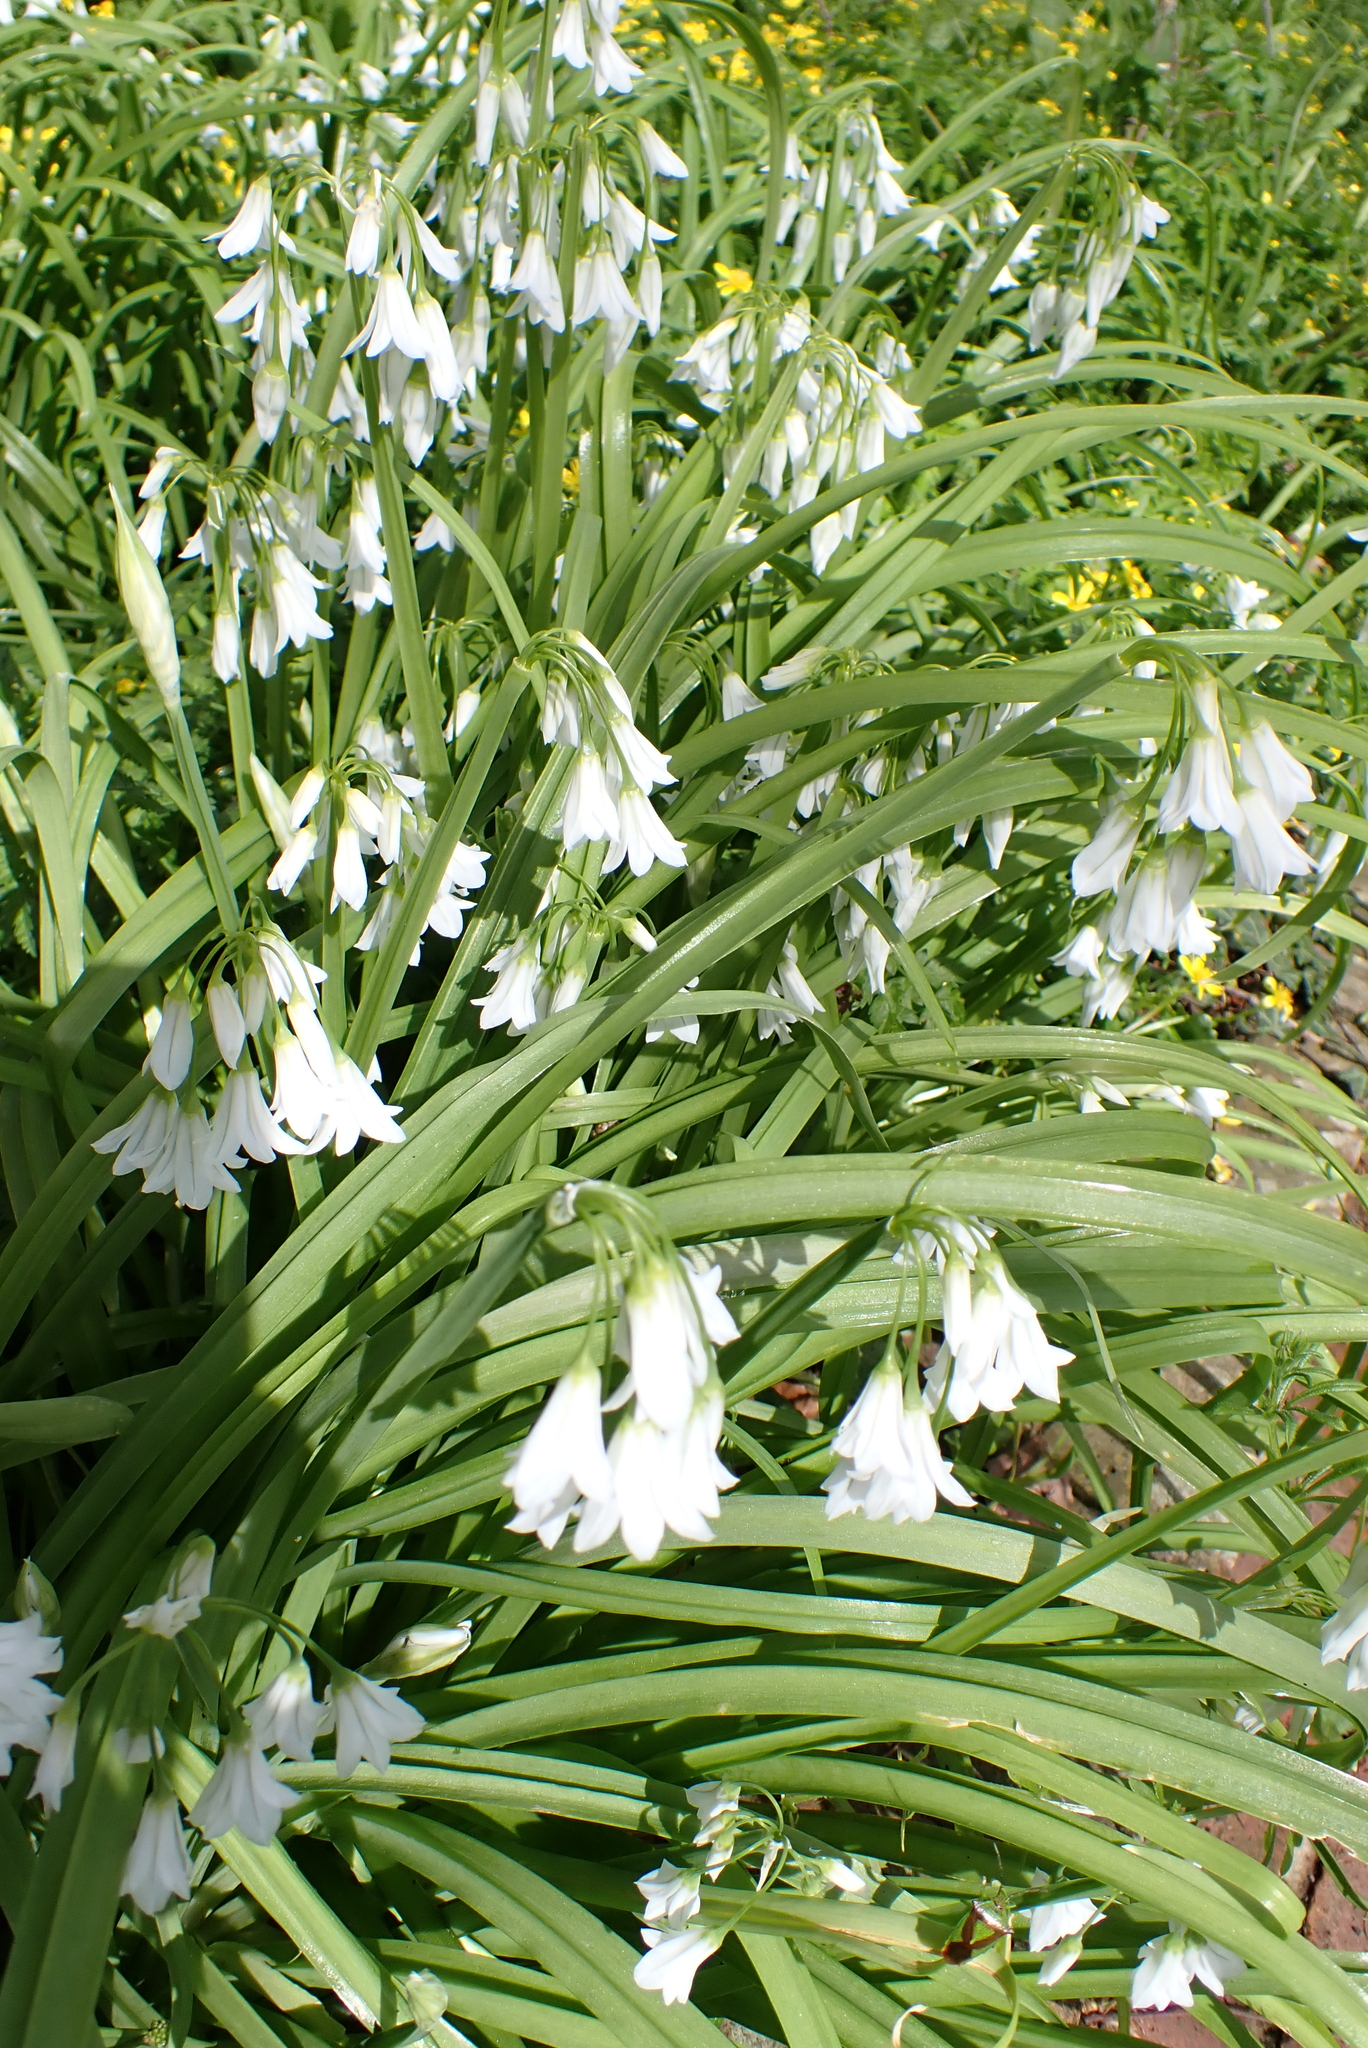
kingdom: Plantae
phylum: Tracheophyta
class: Liliopsida
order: Asparagales
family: Amaryllidaceae
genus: Allium
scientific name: Allium triquetrum
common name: Three-cornered garlic
